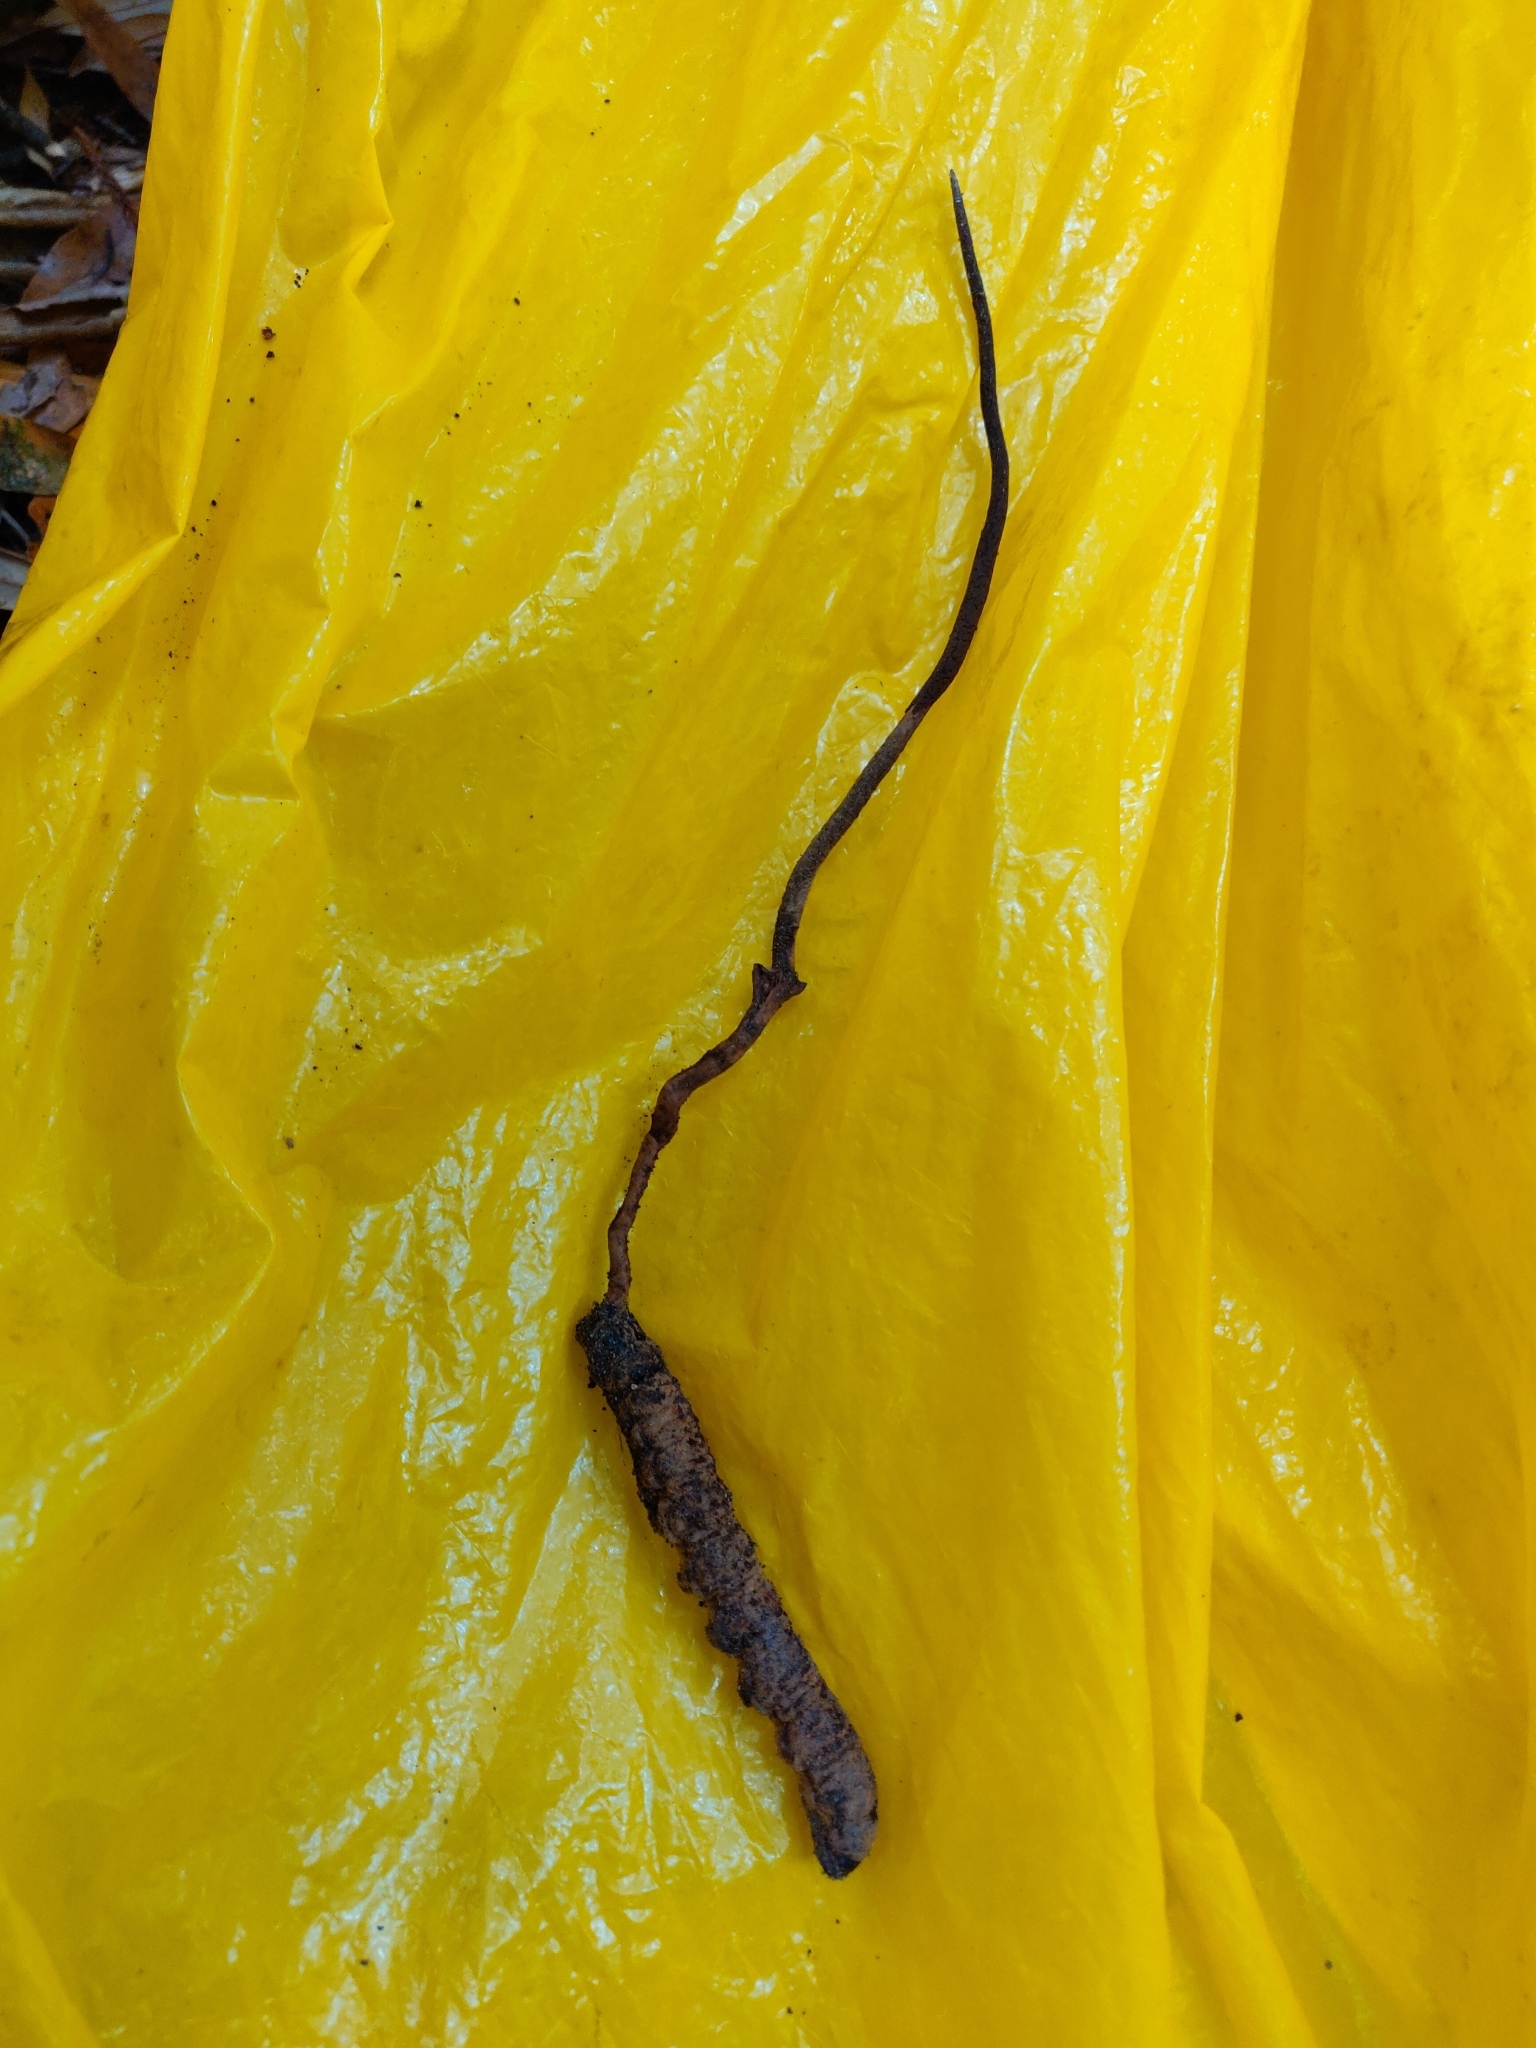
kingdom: Fungi
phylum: Ascomycota
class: Sordariomycetes
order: Hypocreales
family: Ophiocordycipitaceae
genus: Ophiocordyceps
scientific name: Ophiocordyceps robertsii
